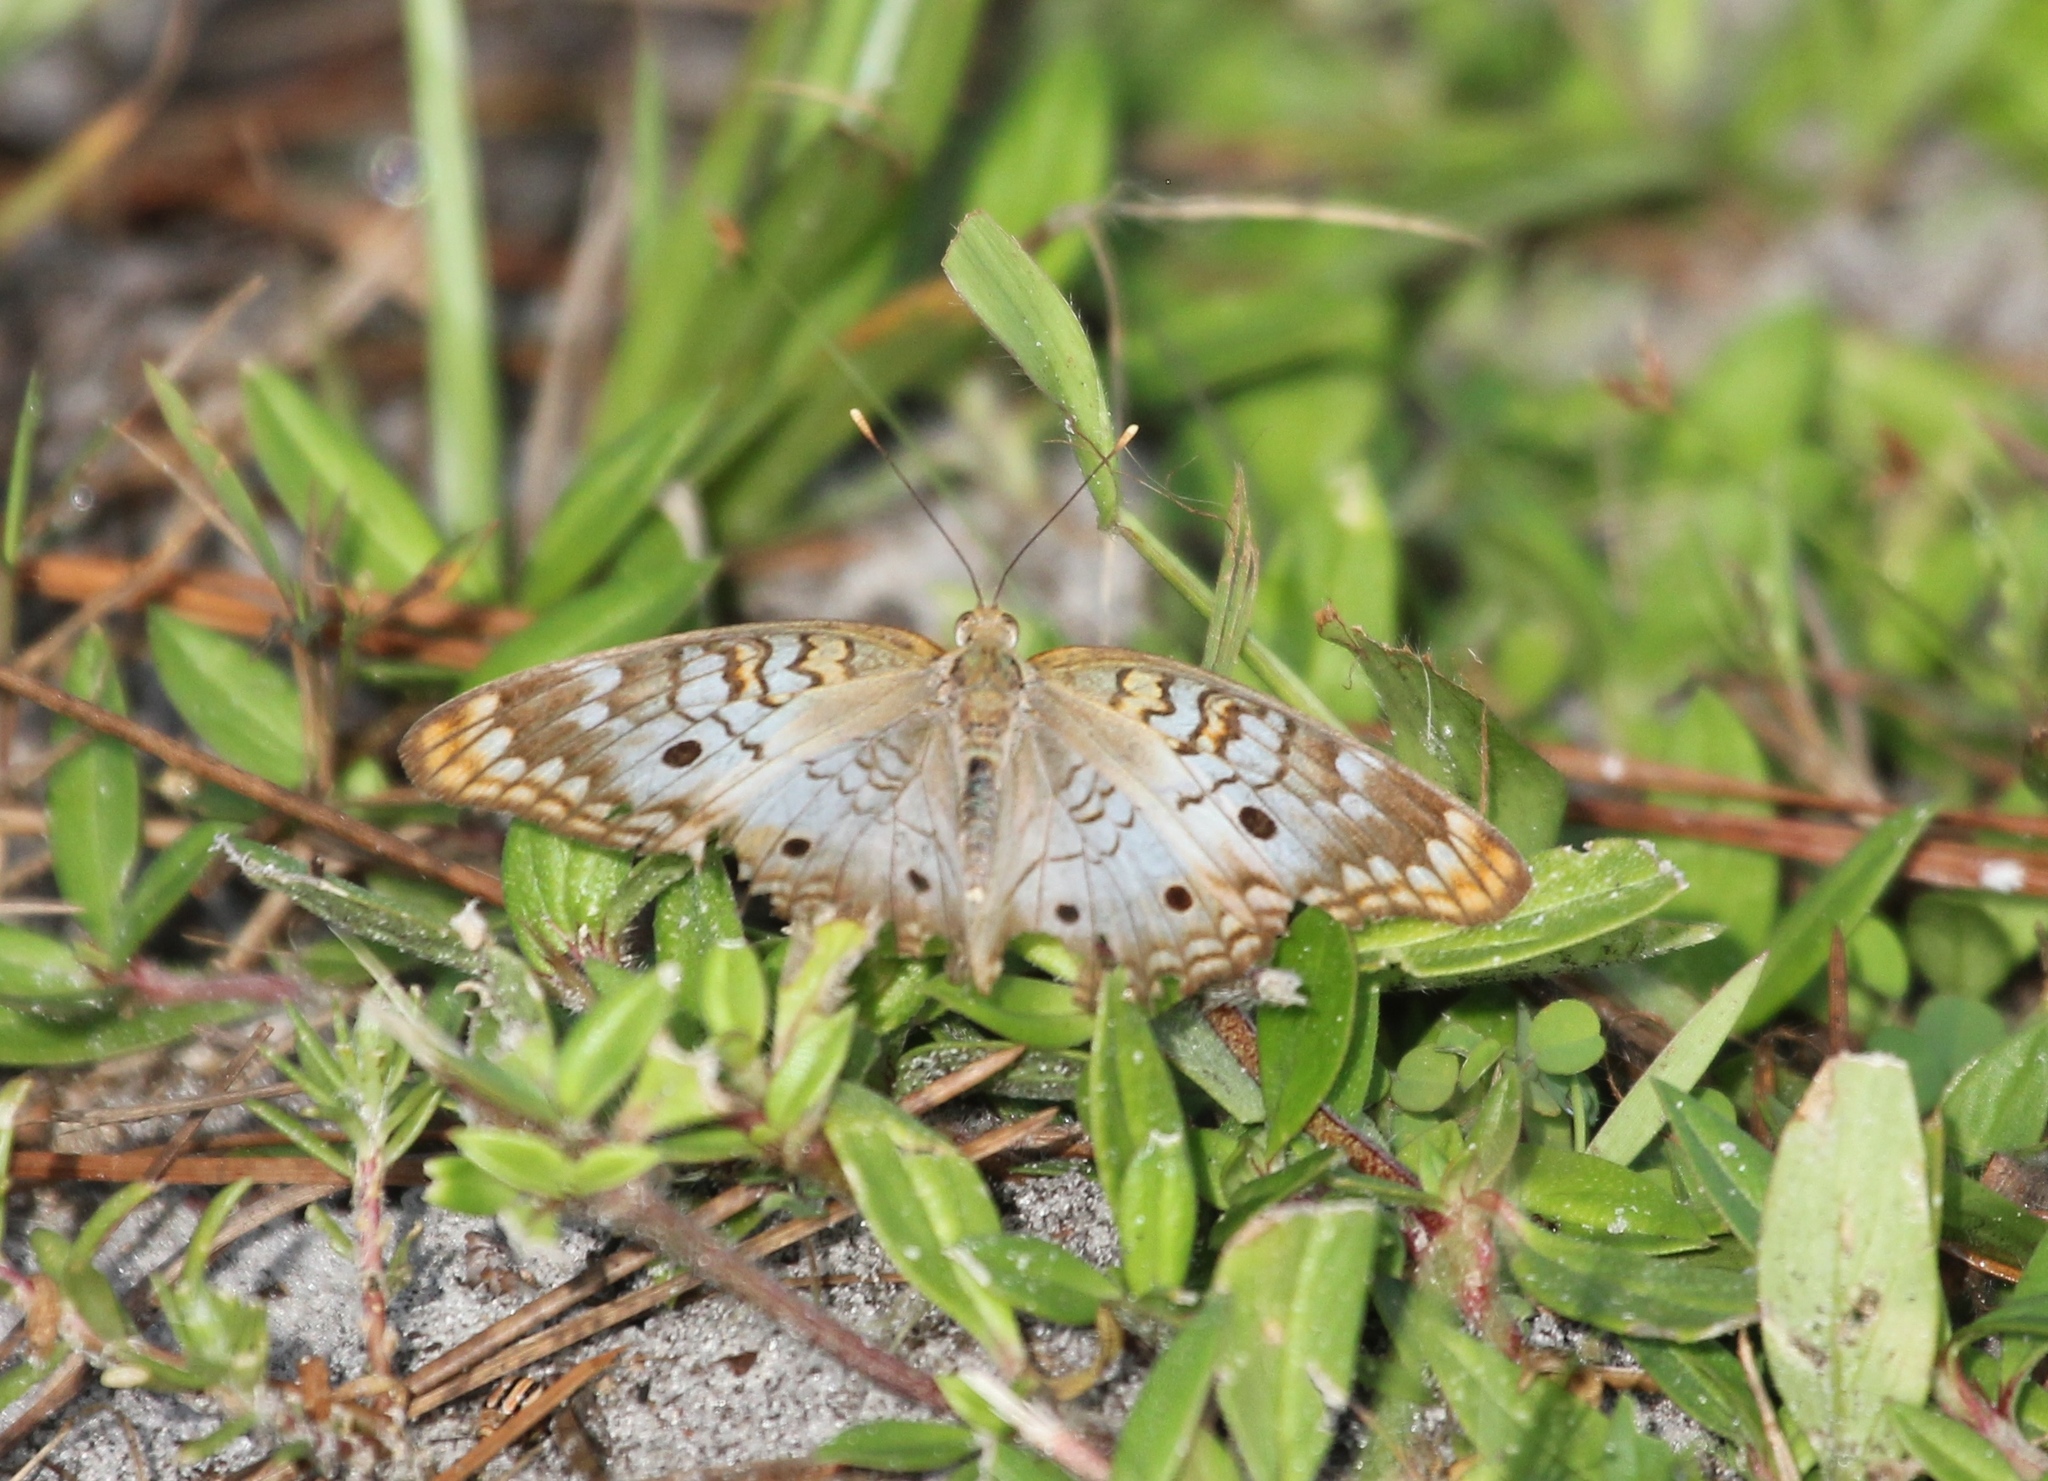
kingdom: Animalia
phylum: Arthropoda
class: Insecta
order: Lepidoptera
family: Nymphalidae
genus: Anartia
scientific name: Anartia jatrophae
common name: White peacock
